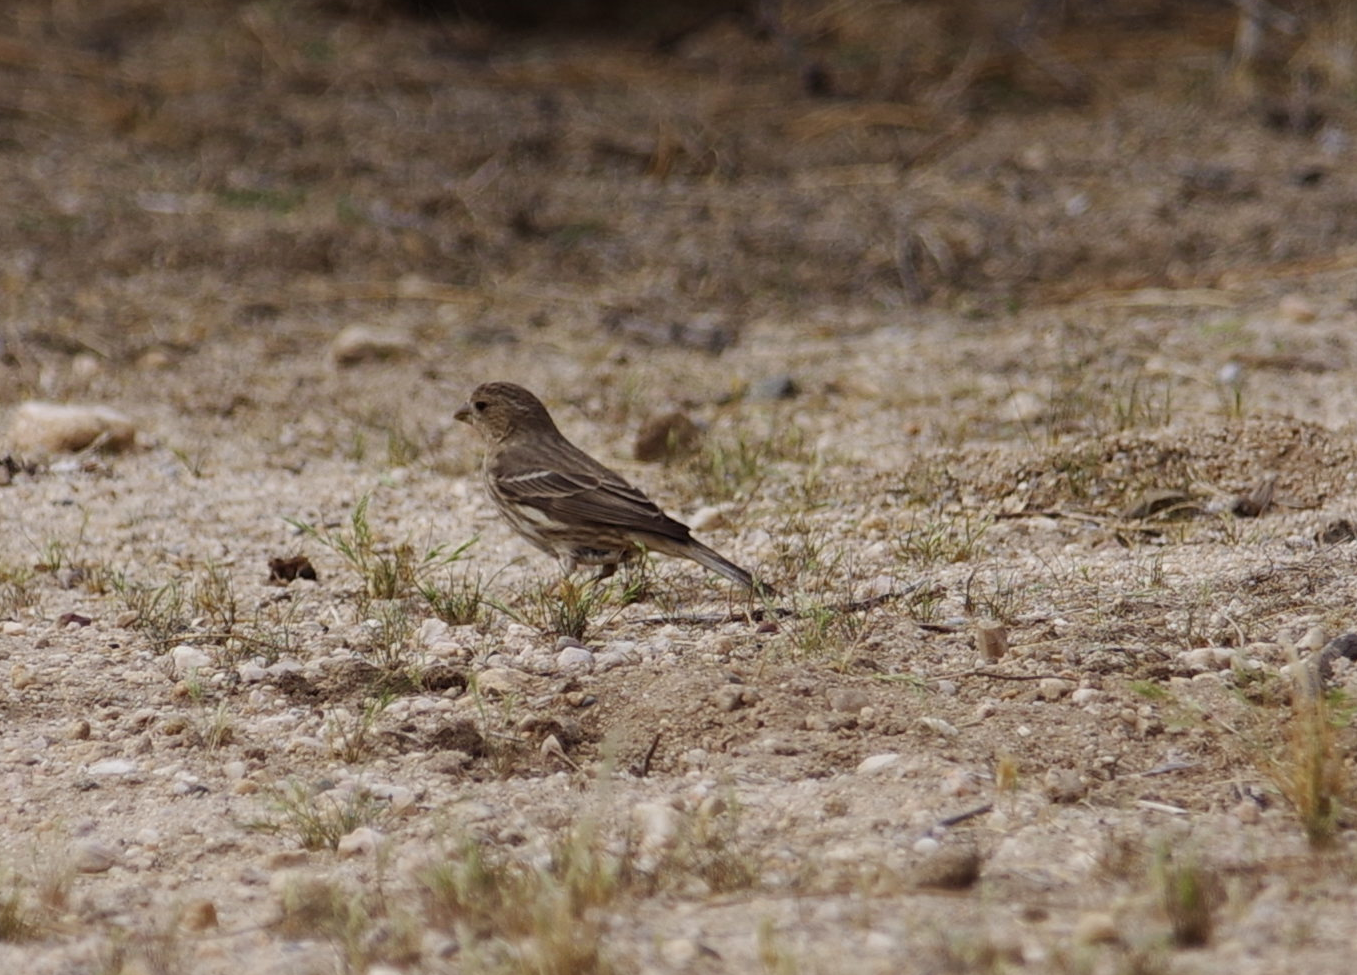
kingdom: Animalia
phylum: Chordata
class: Aves
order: Passeriformes
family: Fringillidae
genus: Haemorhous
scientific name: Haemorhous mexicanus
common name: House finch
